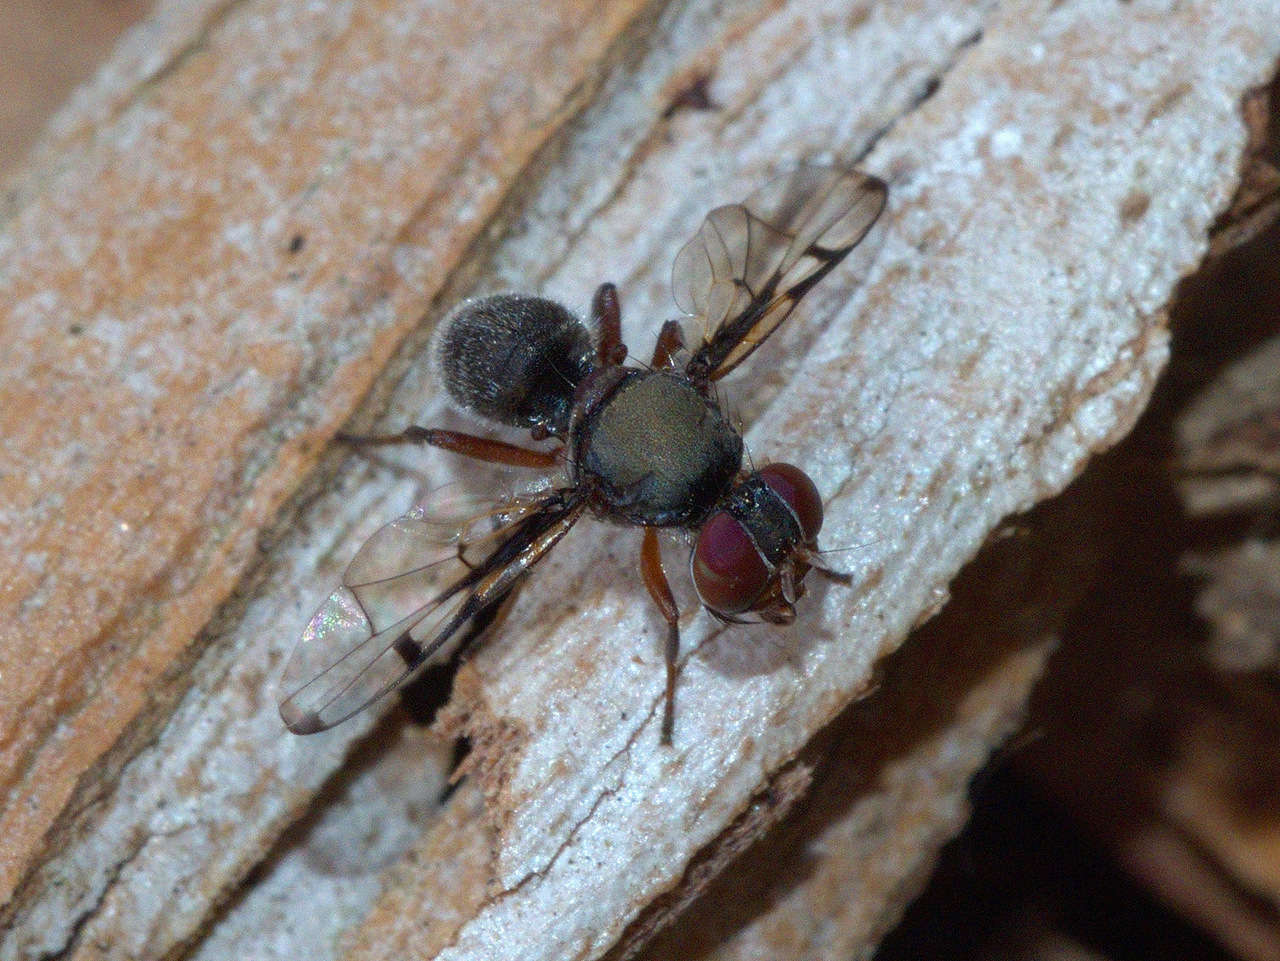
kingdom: Animalia
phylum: Arthropoda
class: Insecta
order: Diptera
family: Platystomatidae
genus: Pogonortalis
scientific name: Pogonortalis doclea
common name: Boatman fly
